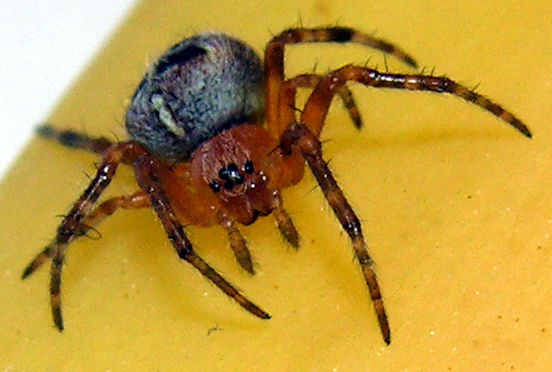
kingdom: Animalia
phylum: Arthropoda
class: Arachnida
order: Araneae
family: Araneidae
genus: Araneus
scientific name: Araneus diadematus
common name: Cross orbweaver
